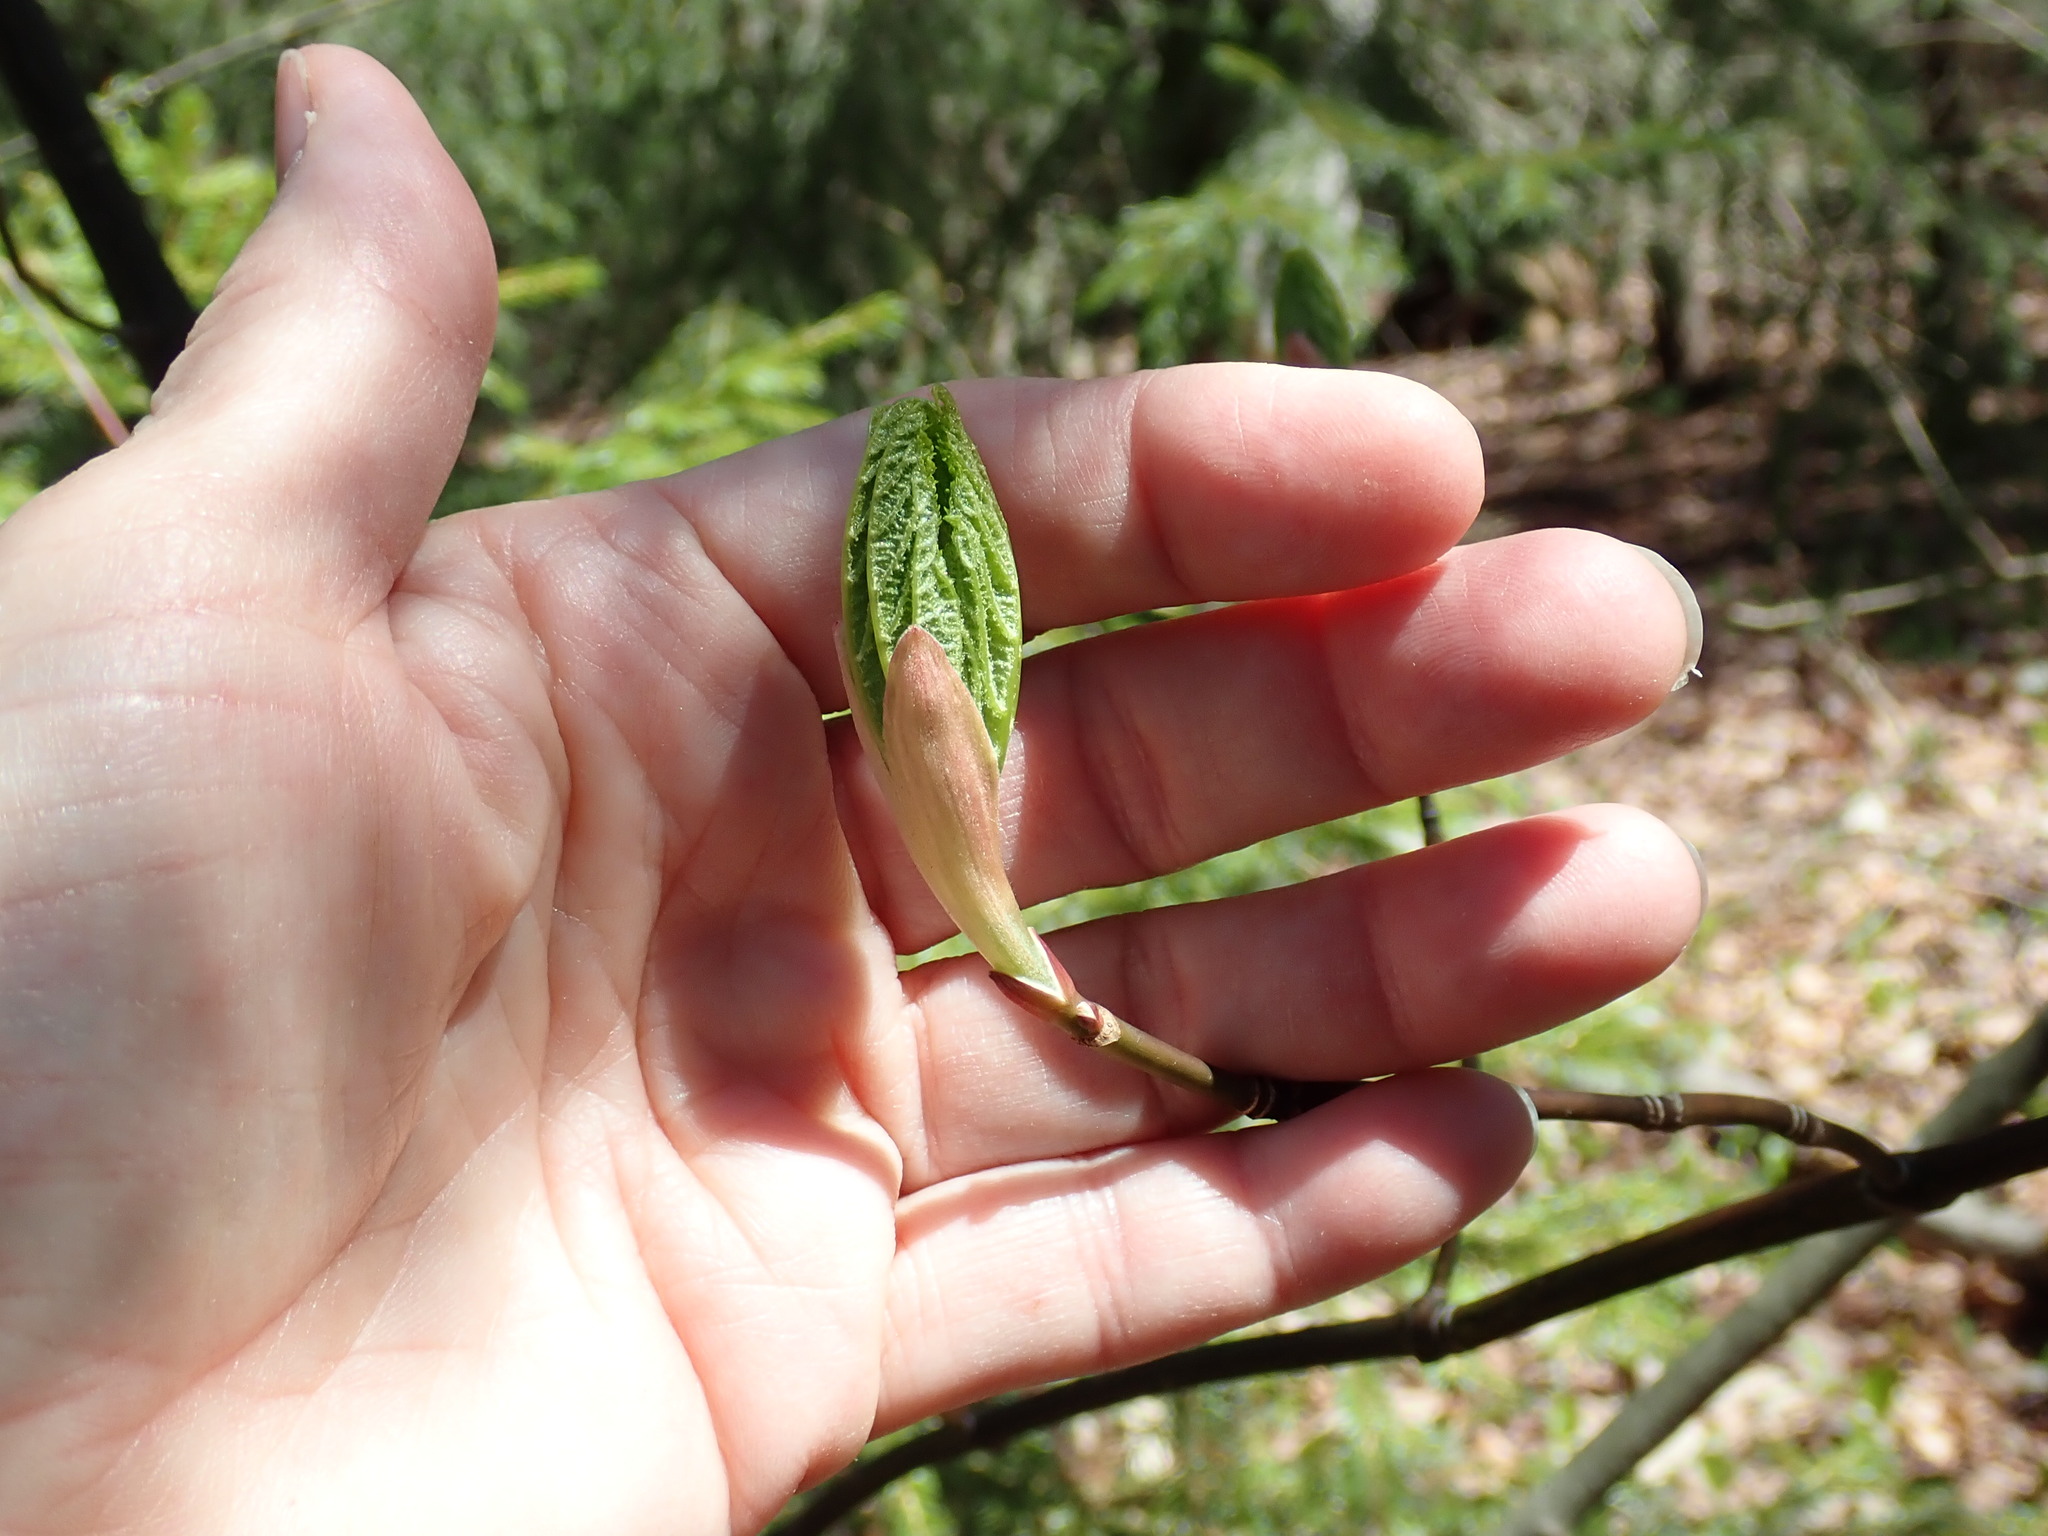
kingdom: Plantae
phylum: Tracheophyta
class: Magnoliopsida
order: Sapindales
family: Sapindaceae
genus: Acer
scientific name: Acer pensylvanicum
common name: Moosewood
